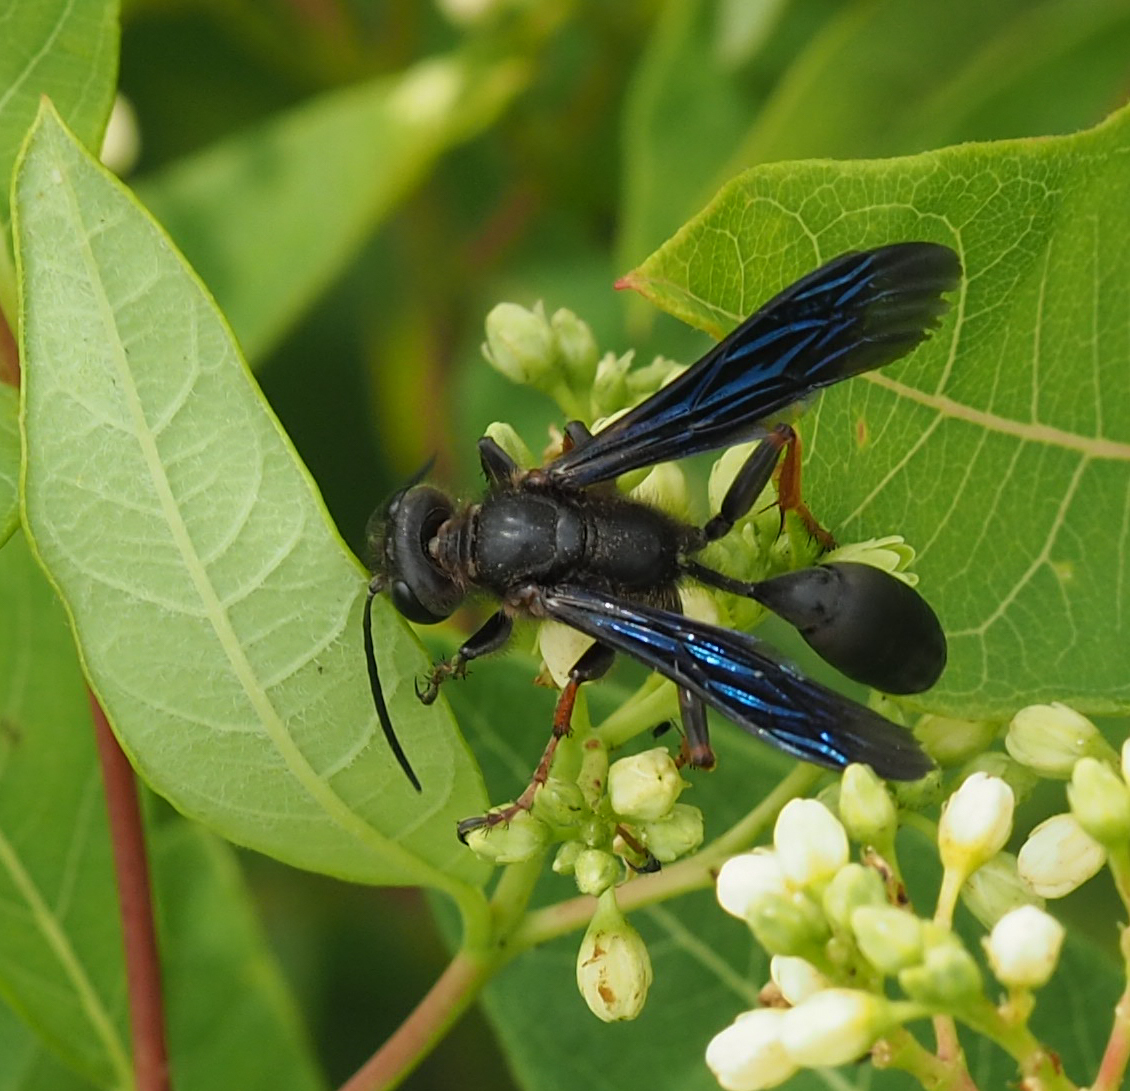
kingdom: Animalia
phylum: Arthropoda
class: Insecta
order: Hymenoptera
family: Sphecidae
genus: Isodontia
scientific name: Isodontia auripes
